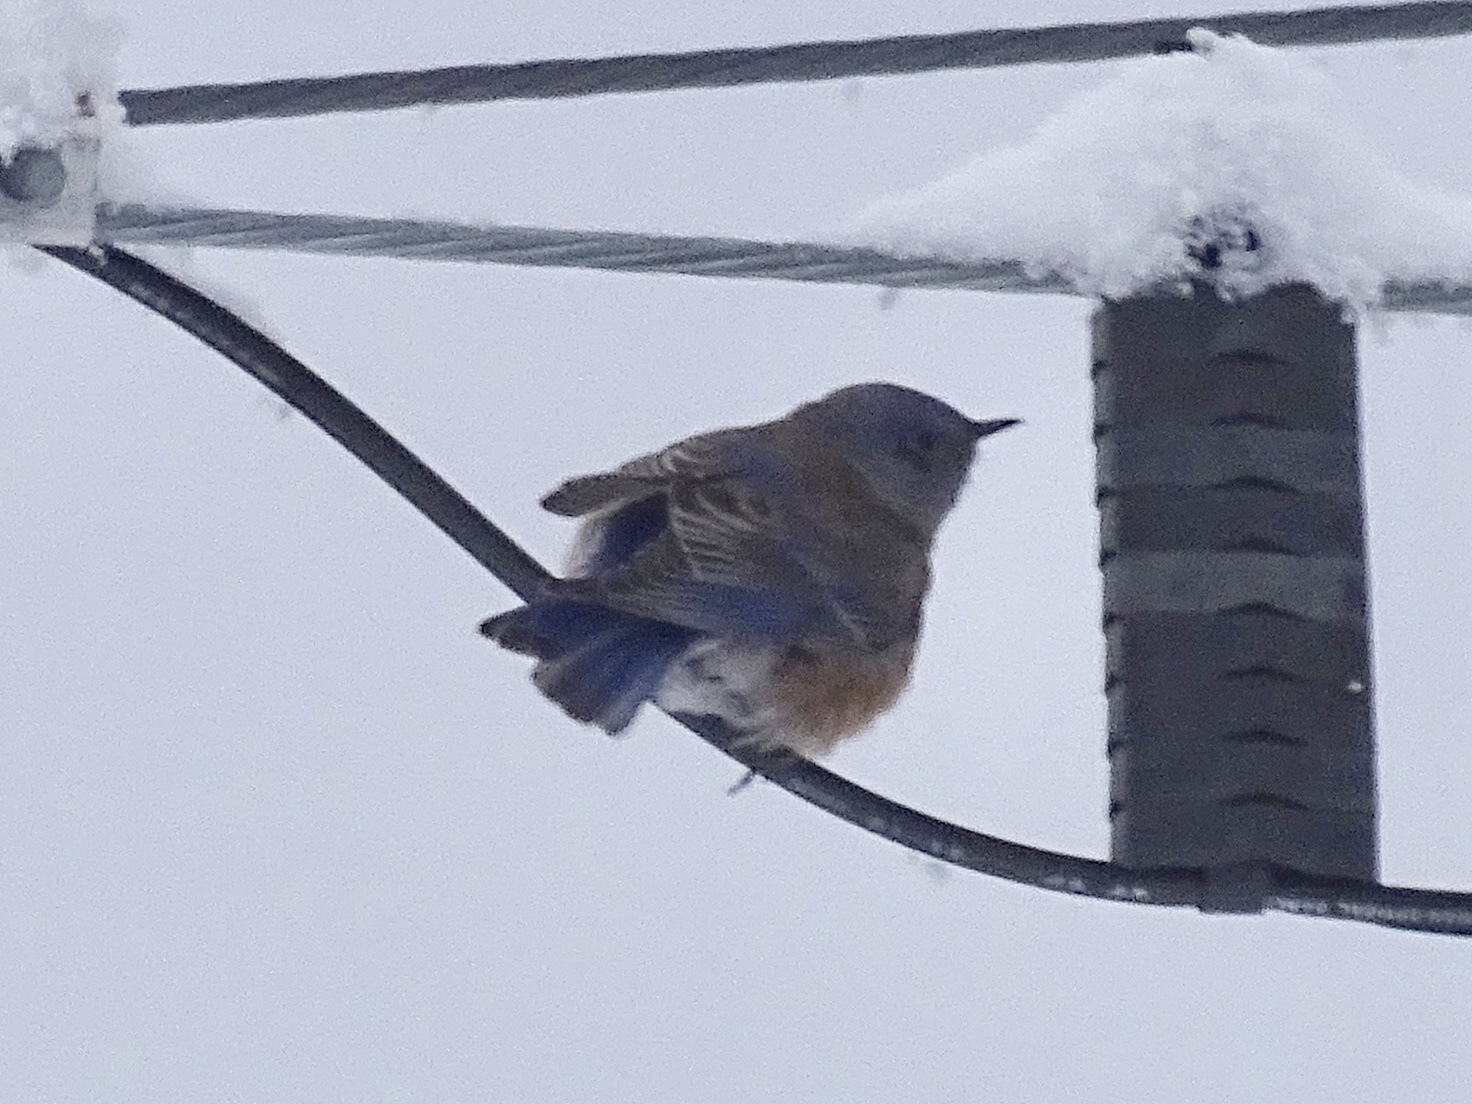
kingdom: Animalia
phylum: Chordata
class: Aves
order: Passeriformes
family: Turdidae
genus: Sialia
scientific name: Sialia mexicana
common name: Western bluebird
